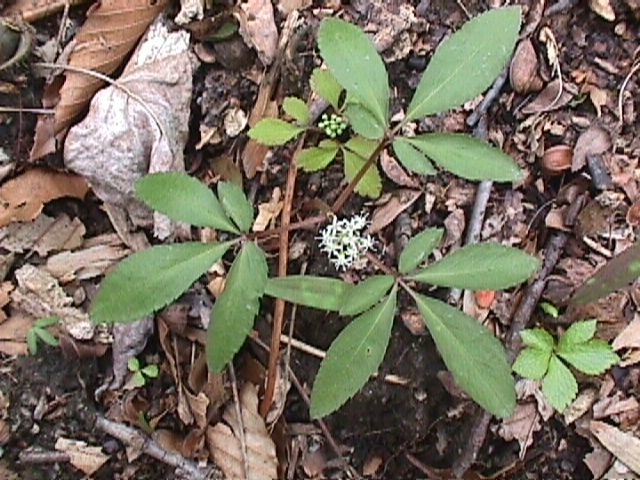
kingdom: Plantae
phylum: Tracheophyta
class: Magnoliopsida
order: Apiales
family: Araliaceae
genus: Panax
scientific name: Panax trifolius
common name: Dwarf ginseng
